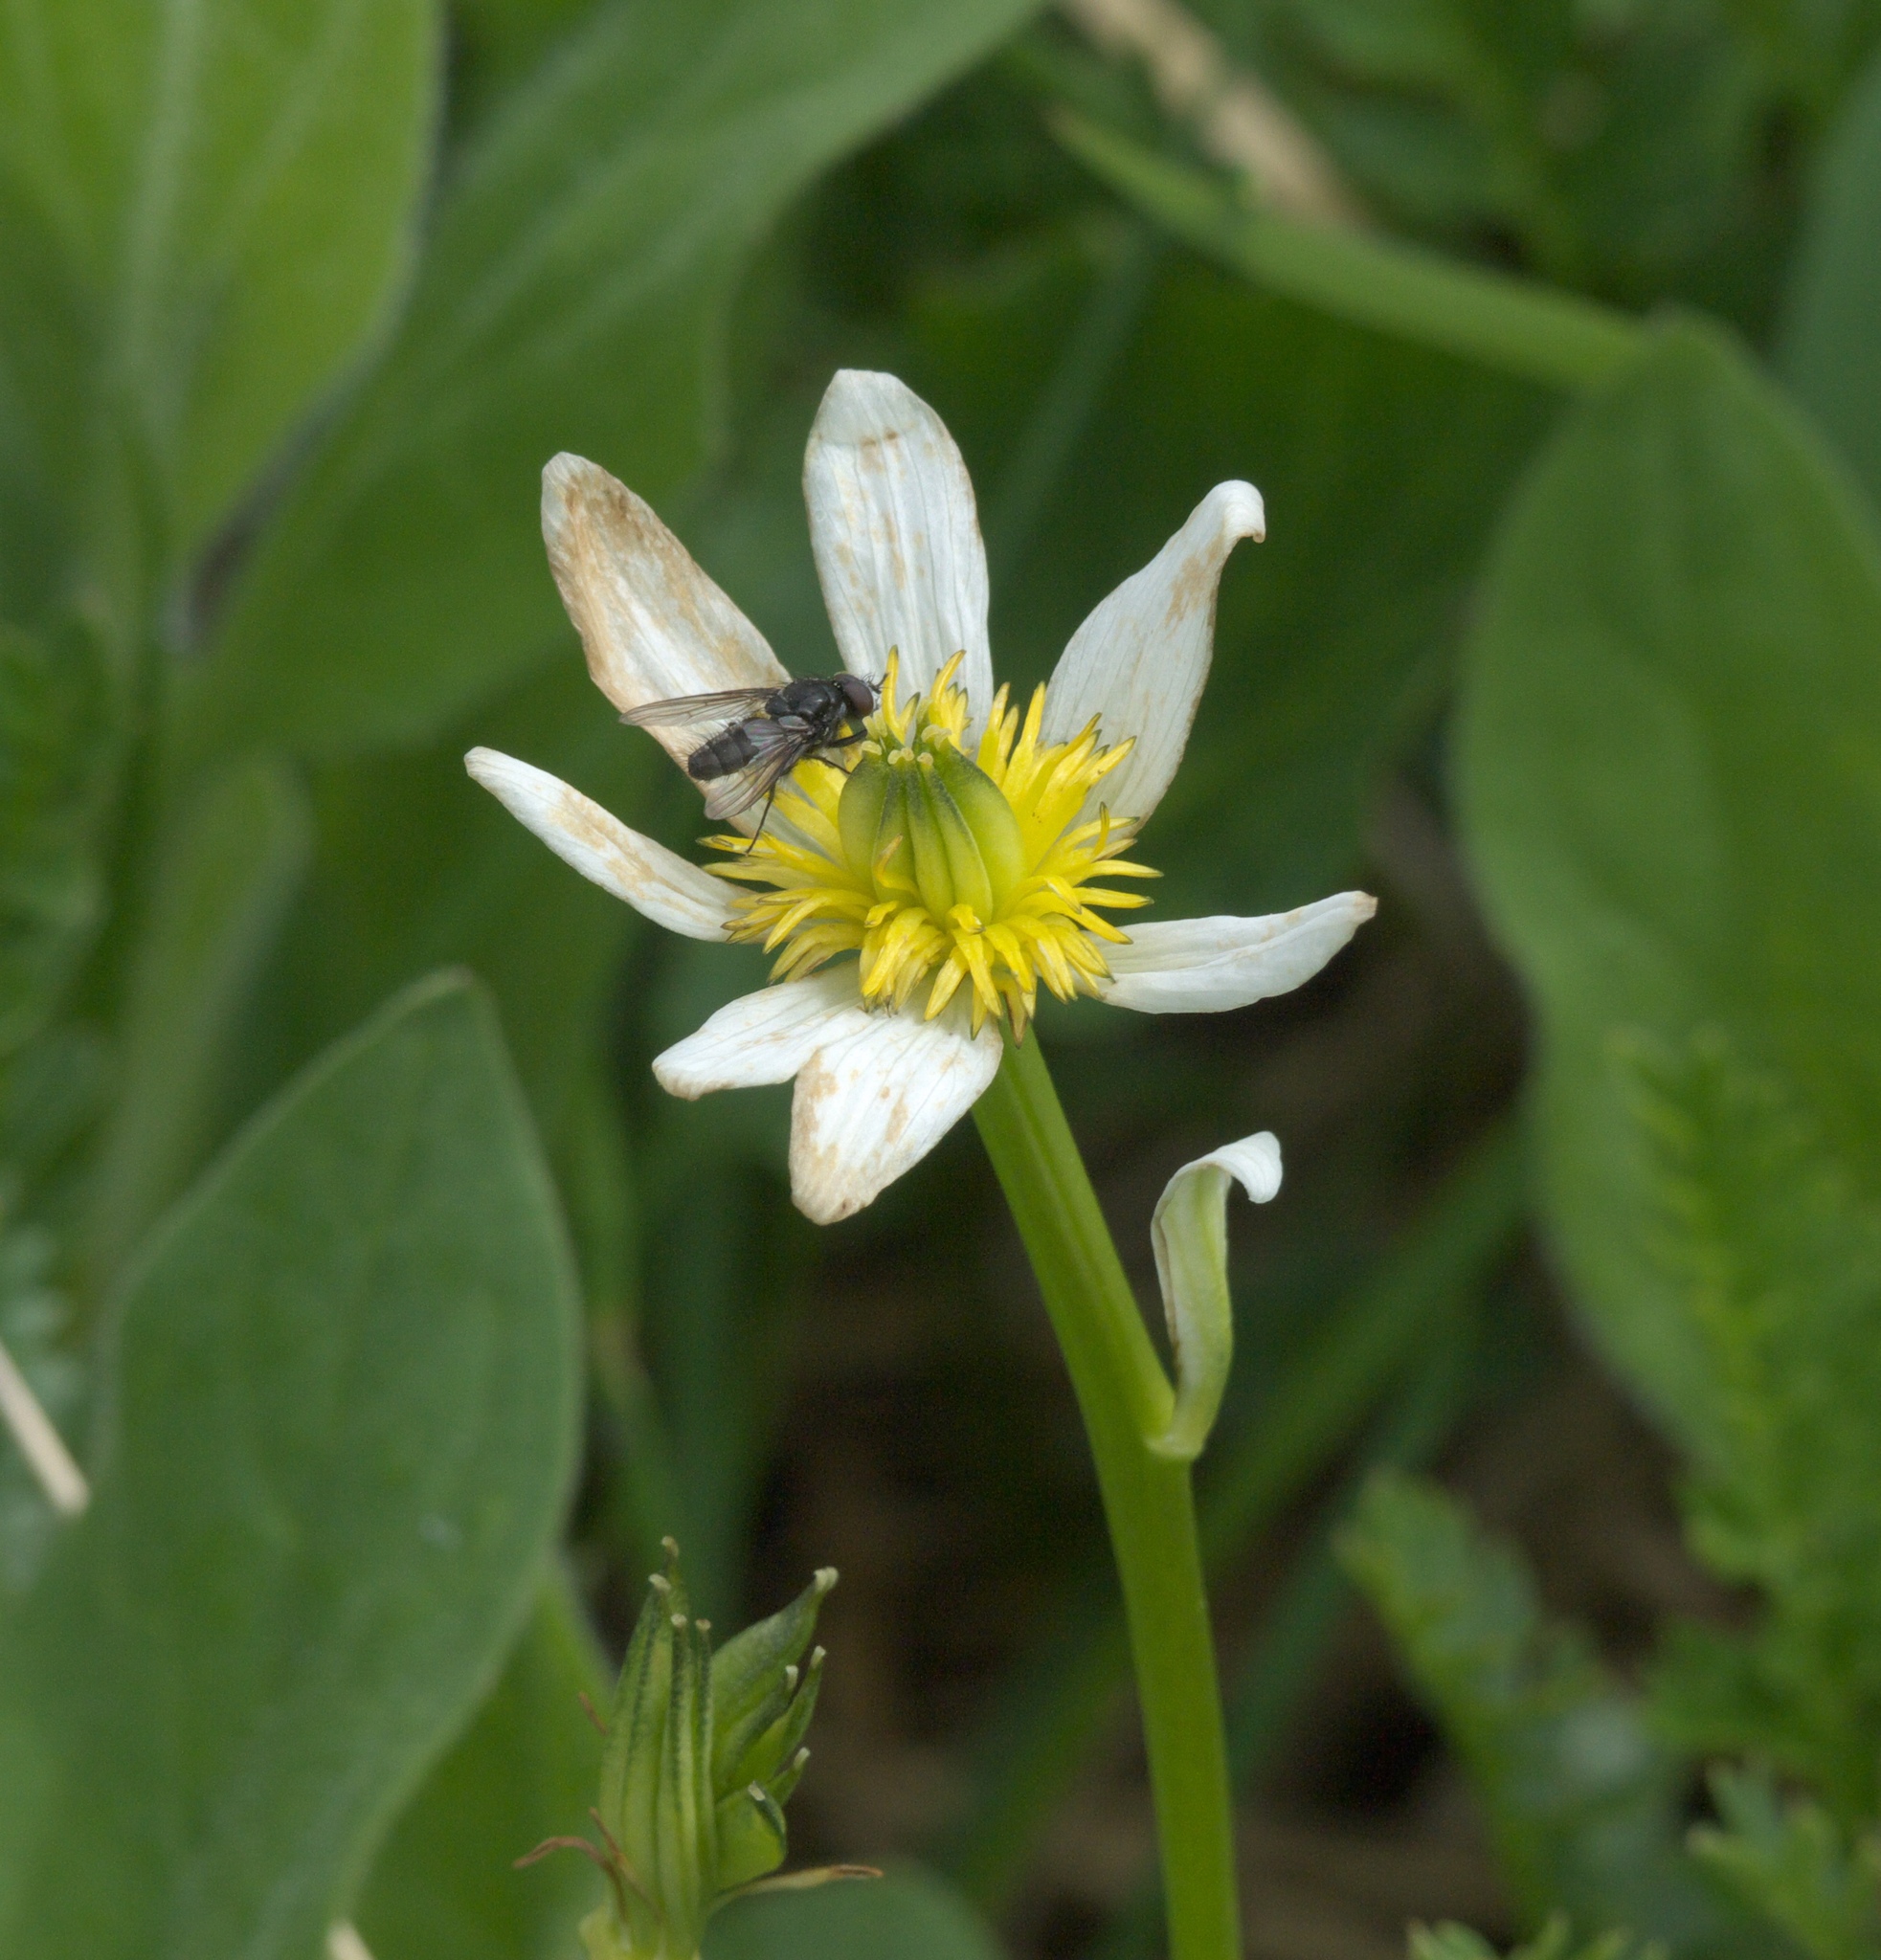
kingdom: Plantae
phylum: Tracheophyta
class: Magnoliopsida
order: Ranunculales
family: Ranunculaceae
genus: Caltha
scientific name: Caltha leptosepala
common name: Elkslip
